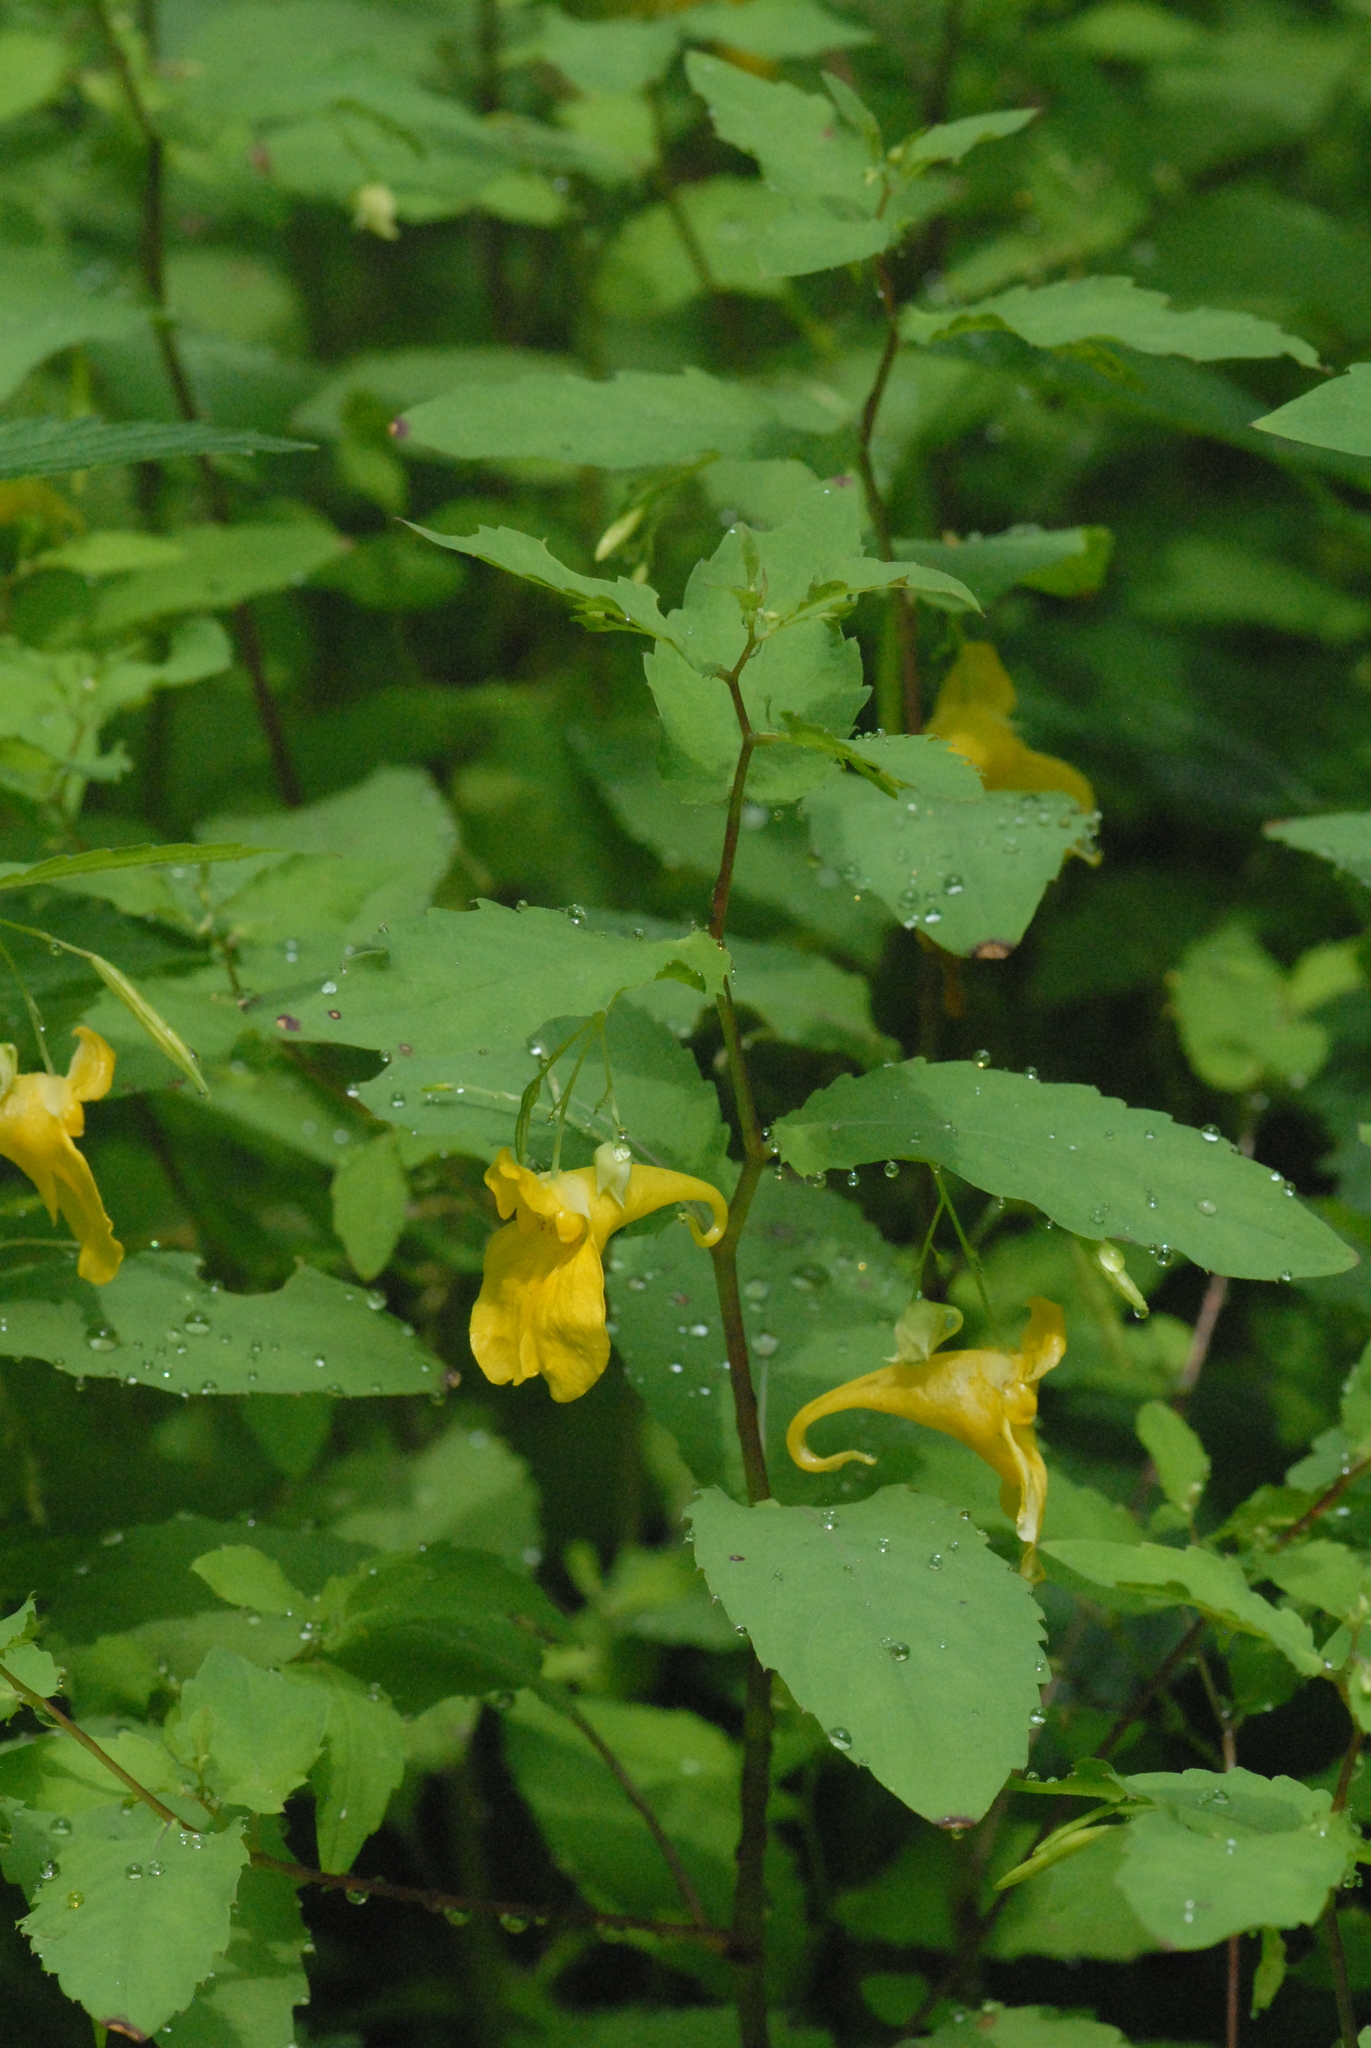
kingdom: Plantae
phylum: Tracheophyta
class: Magnoliopsida
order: Ericales
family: Balsaminaceae
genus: Impatiens
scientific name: Impatiens noli-tangere
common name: Touch-me-not balsam
